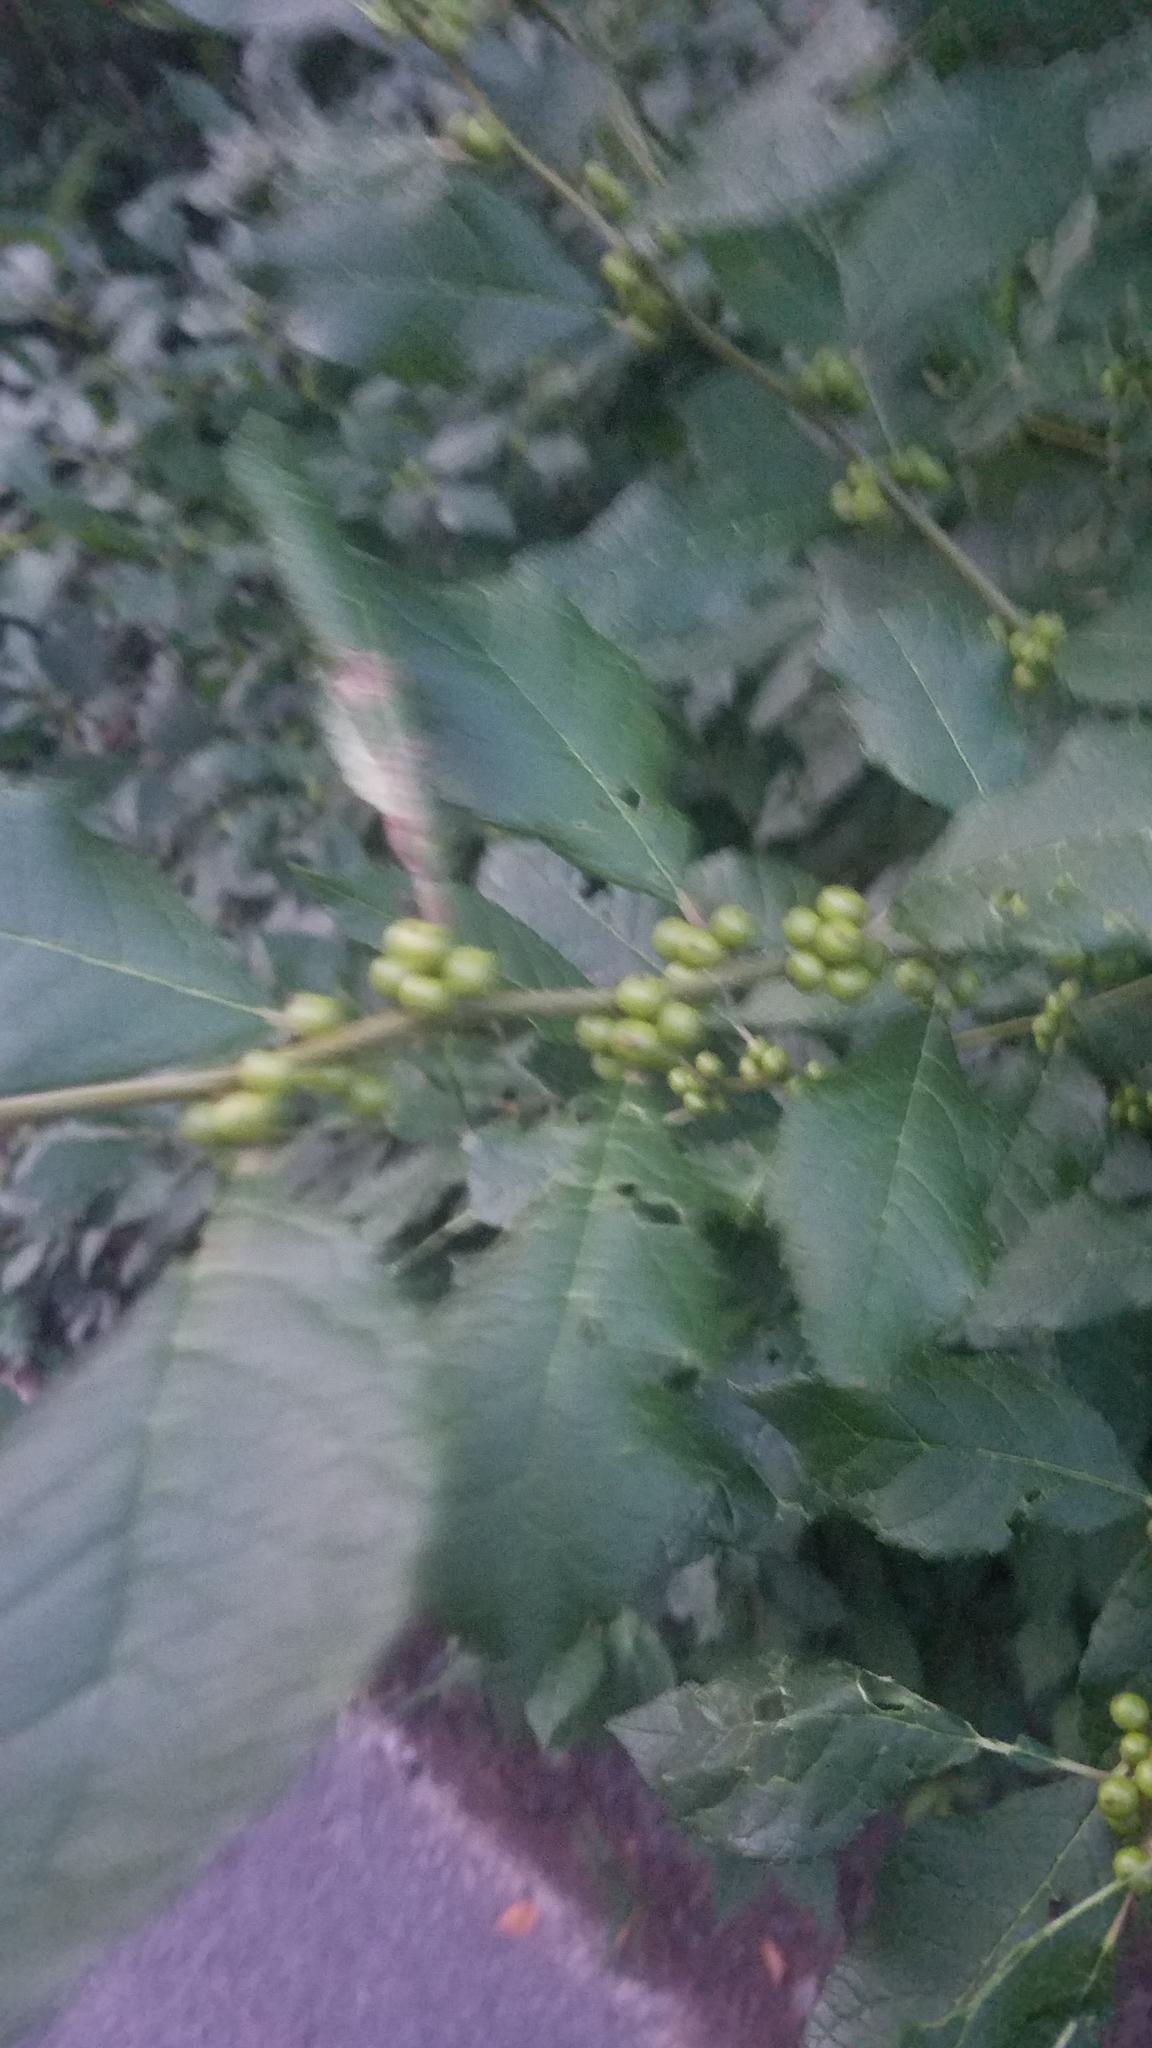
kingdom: Plantae
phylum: Tracheophyta
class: Magnoliopsida
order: Aquifoliales
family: Aquifoliaceae
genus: Ilex
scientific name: Ilex verticillata
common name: Virginia winterberry
